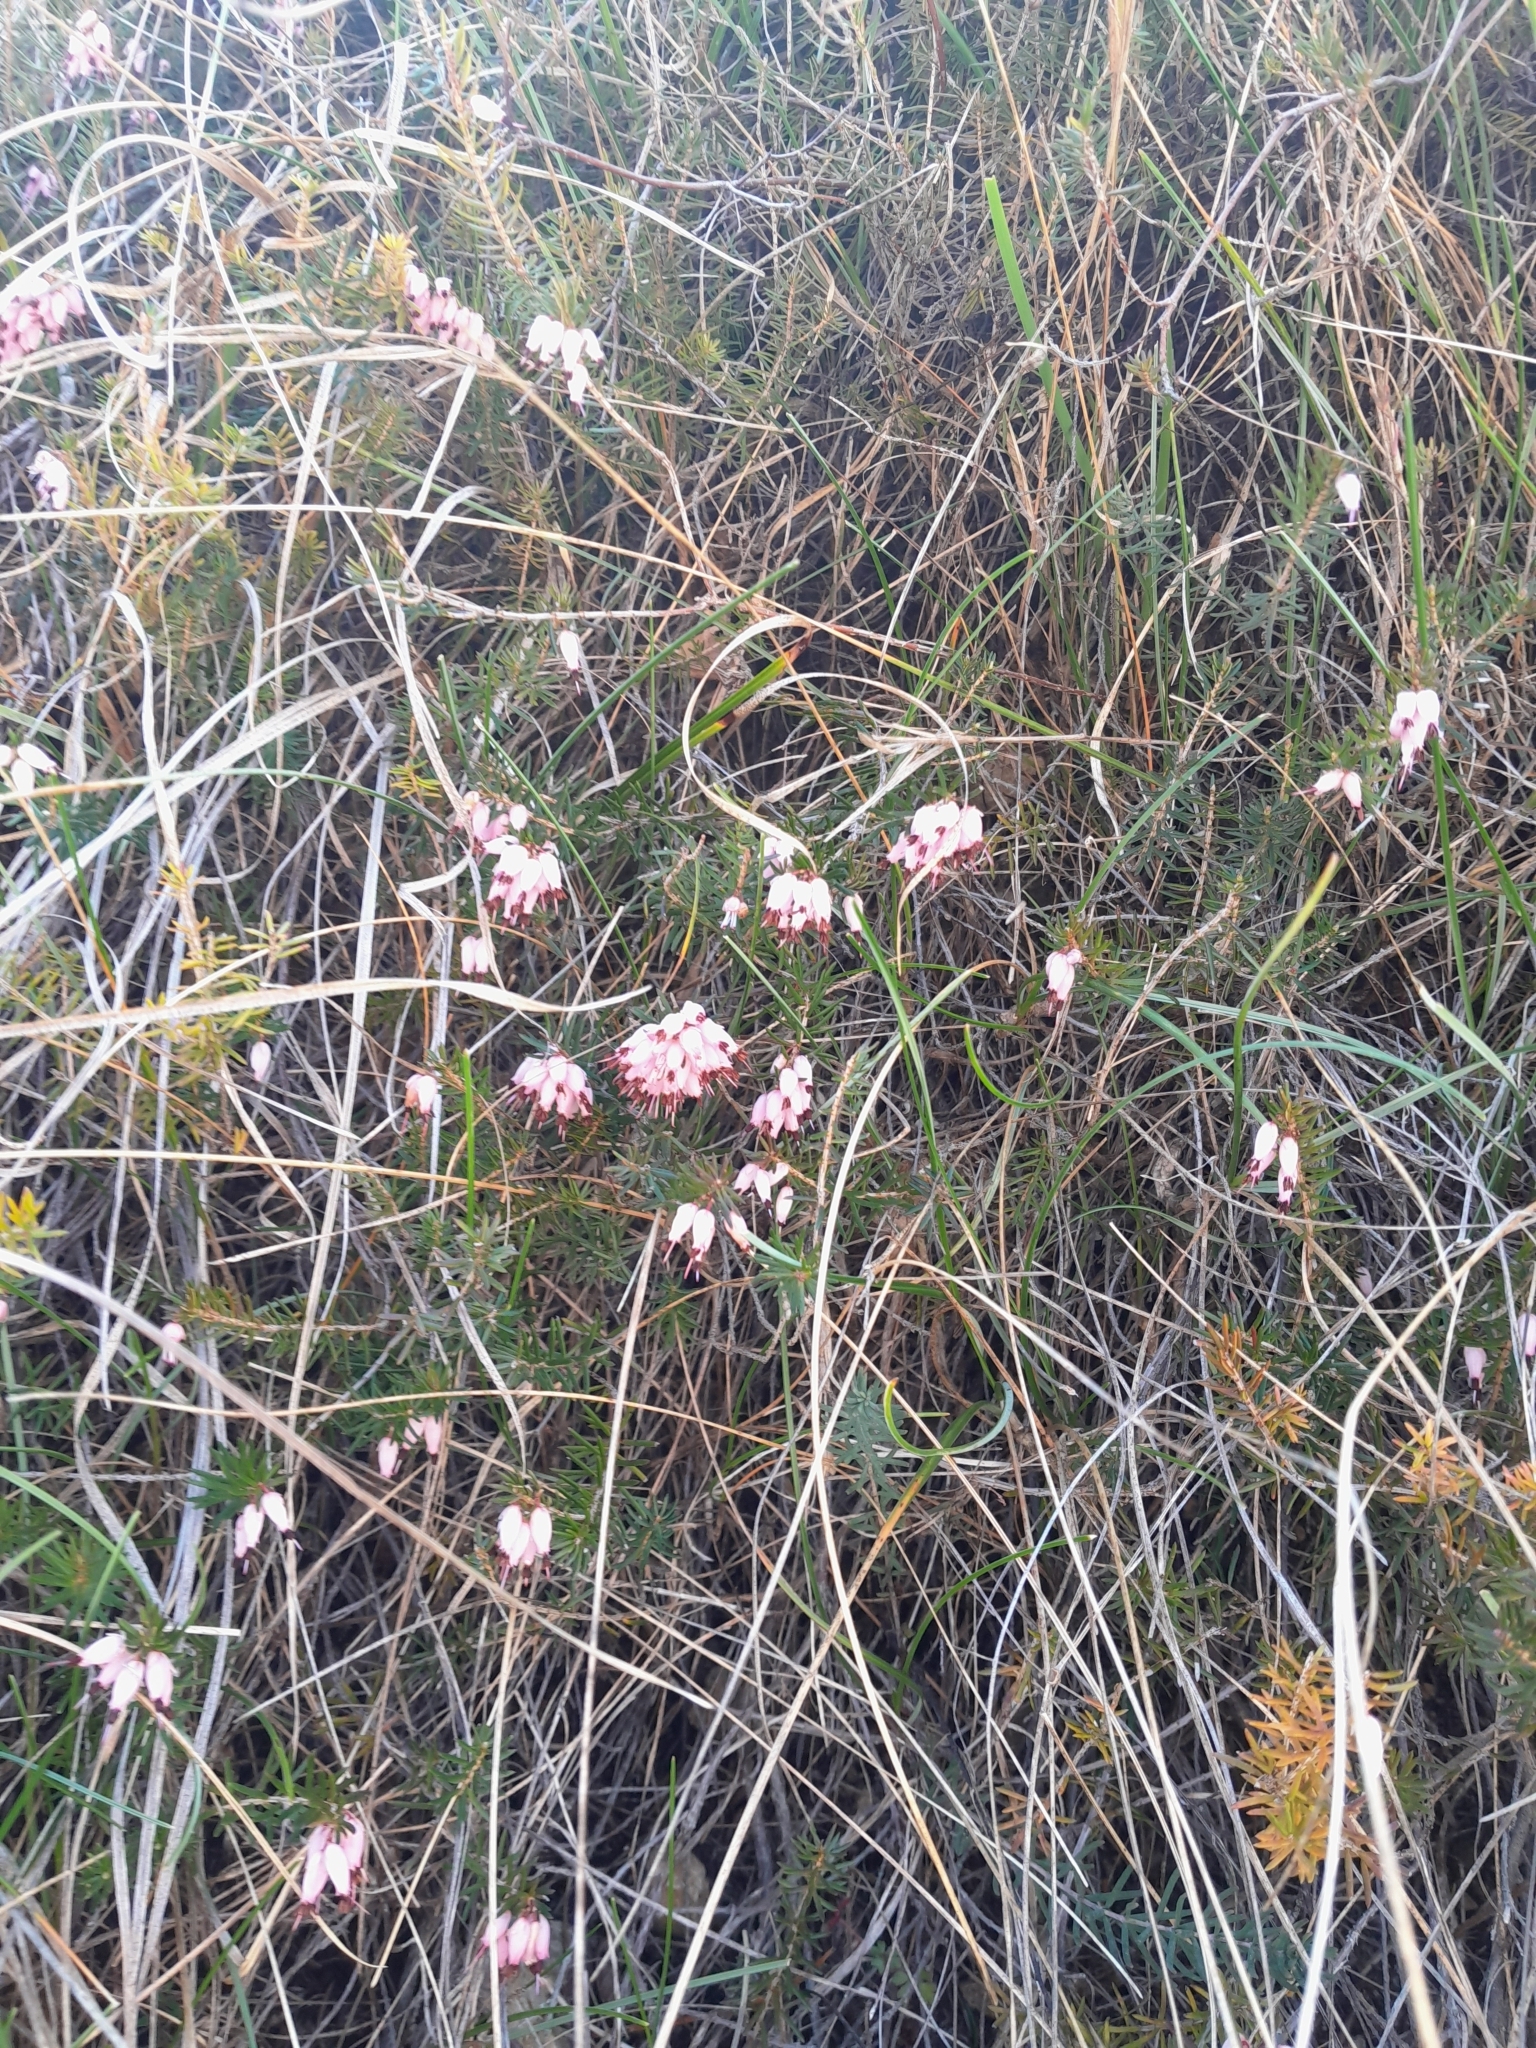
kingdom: Plantae
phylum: Tracheophyta
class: Magnoliopsida
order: Ericales
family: Ericaceae
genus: Erica
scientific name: Erica carnea
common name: Winter heath
